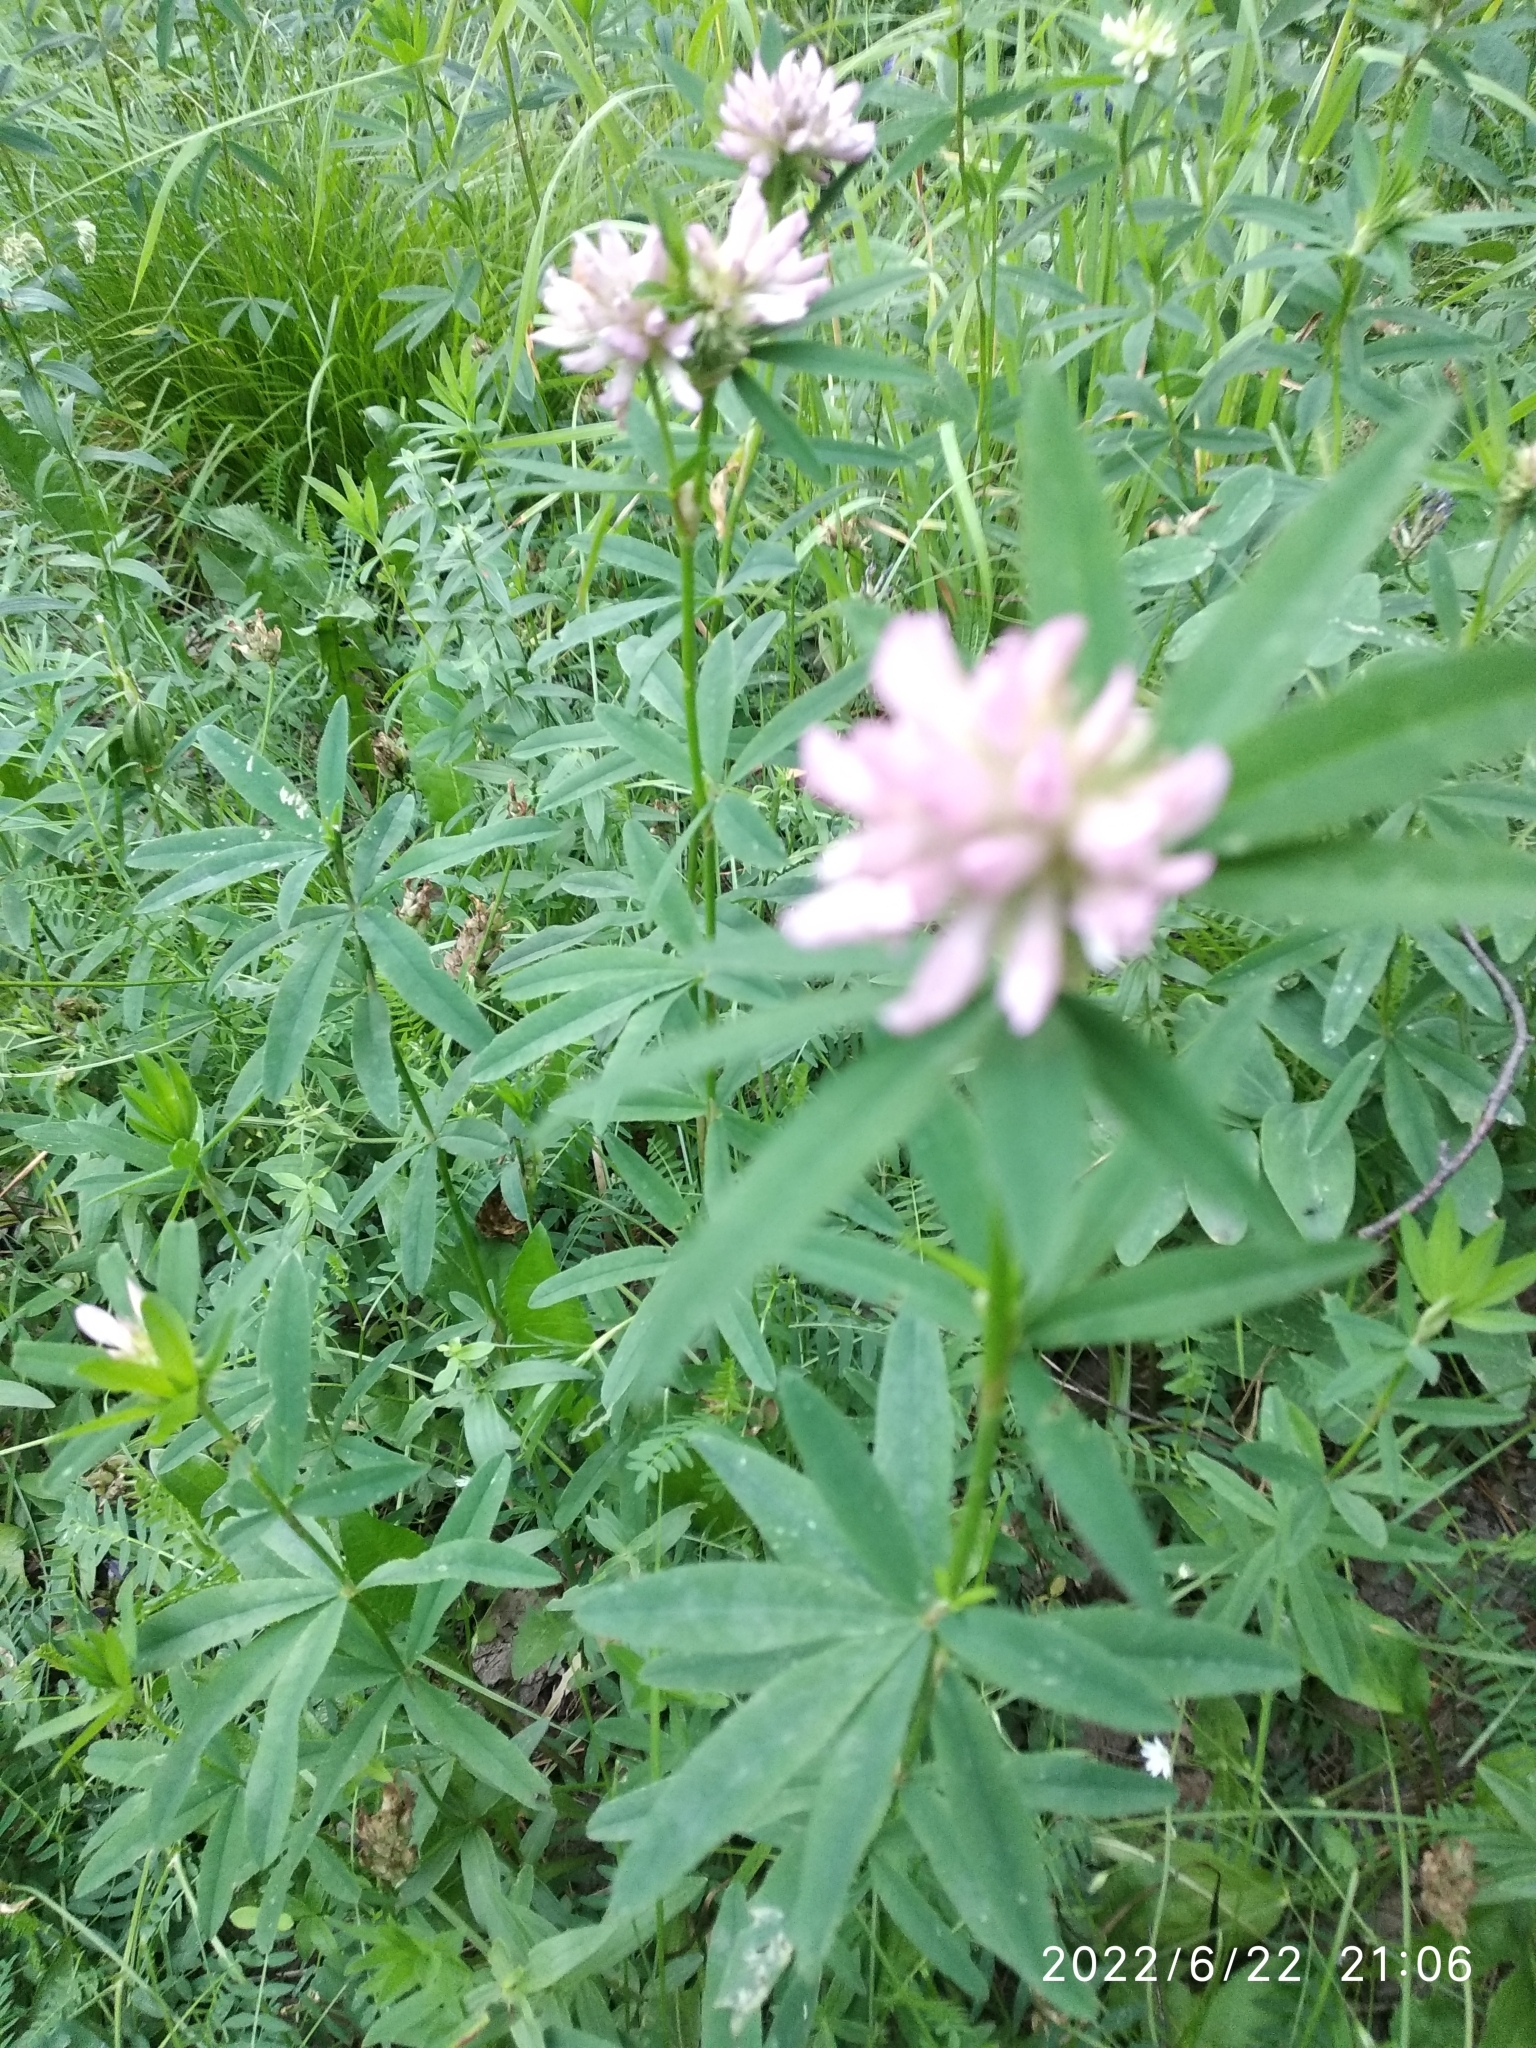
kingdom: Plantae
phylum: Tracheophyta
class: Magnoliopsida
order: Fabales
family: Fabaceae
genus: Trifolium
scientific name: Trifolium lupinaster
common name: Lupine clover
